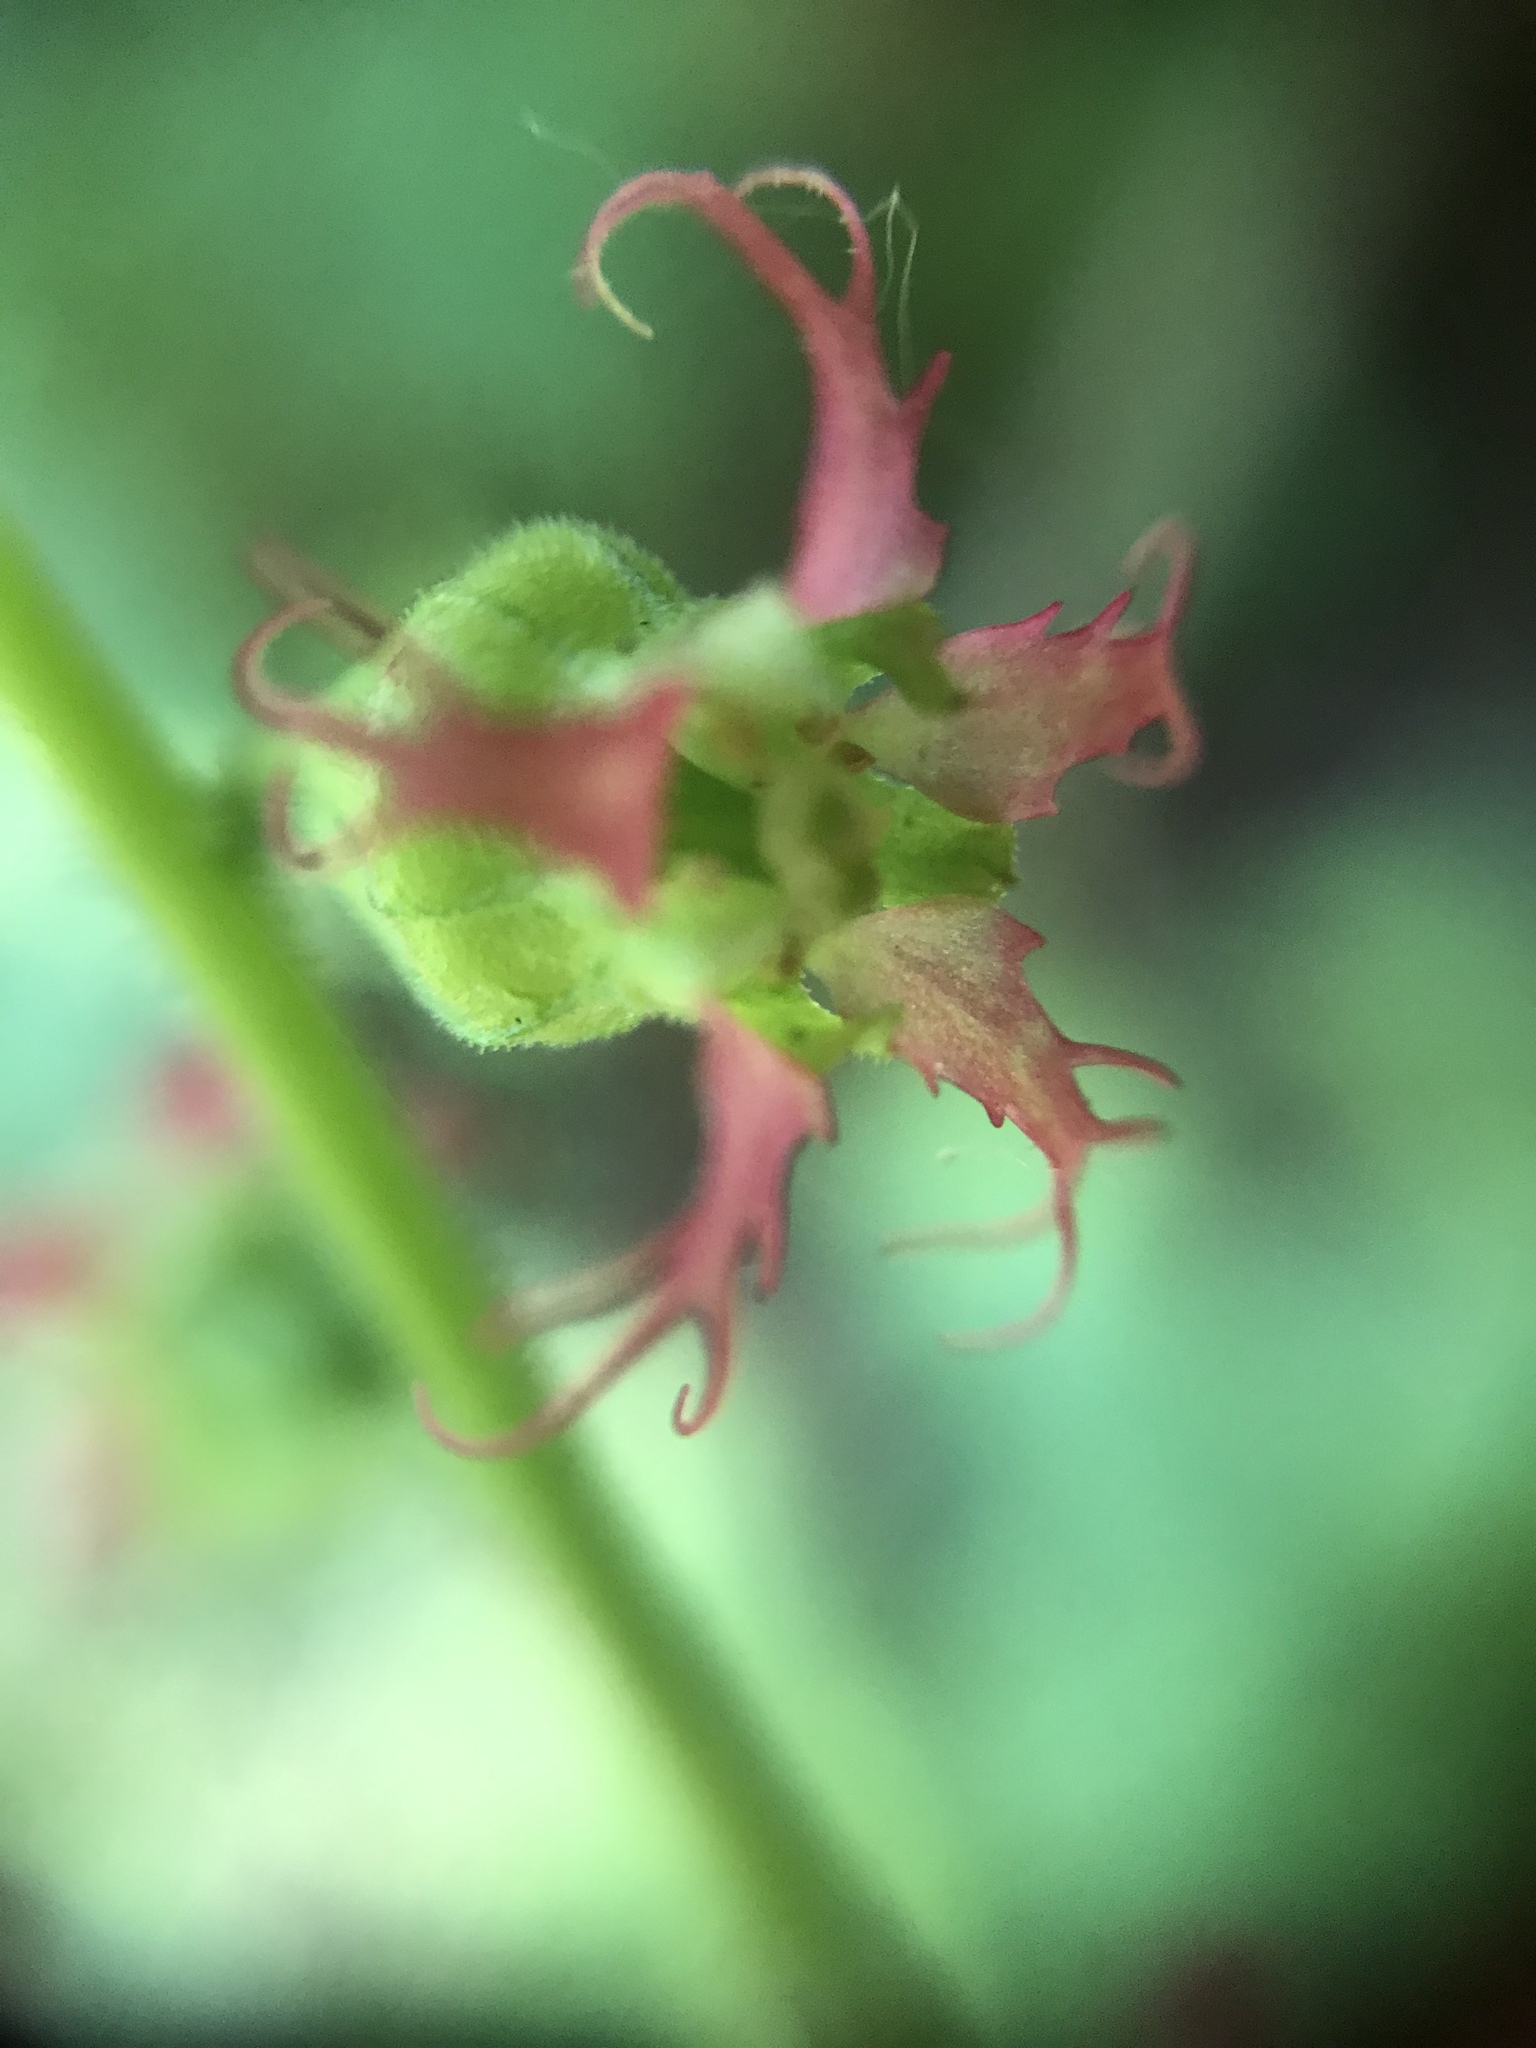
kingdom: Plantae
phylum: Tracheophyta
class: Magnoliopsida
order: Saxifragales
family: Saxifragaceae
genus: Tellima
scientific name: Tellima grandiflora
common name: Fringecups
